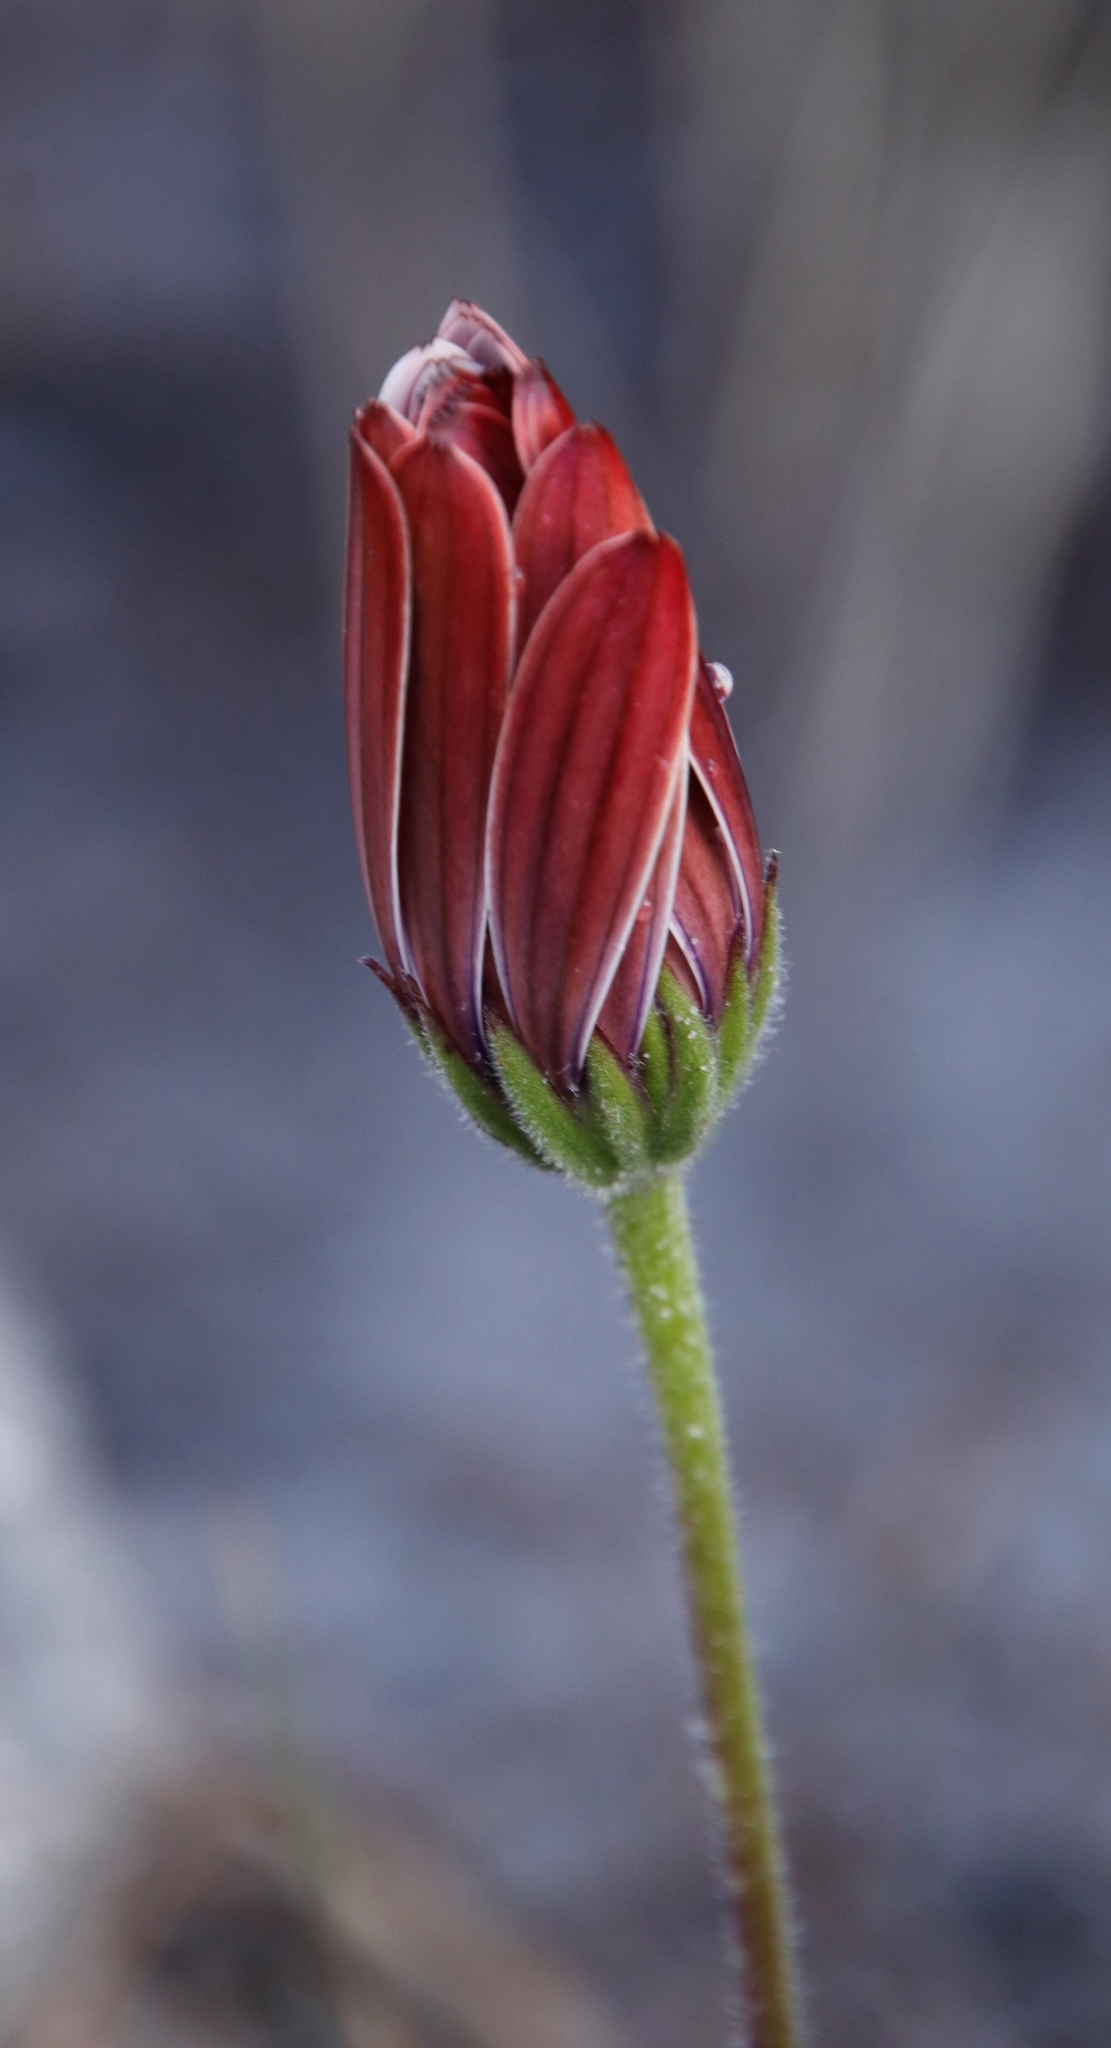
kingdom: Plantae
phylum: Tracheophyta
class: Magnoliopsida
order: Asterales
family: Asteraceae
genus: Dimorphotheca
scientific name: Dimorphotheca nudicaulis
